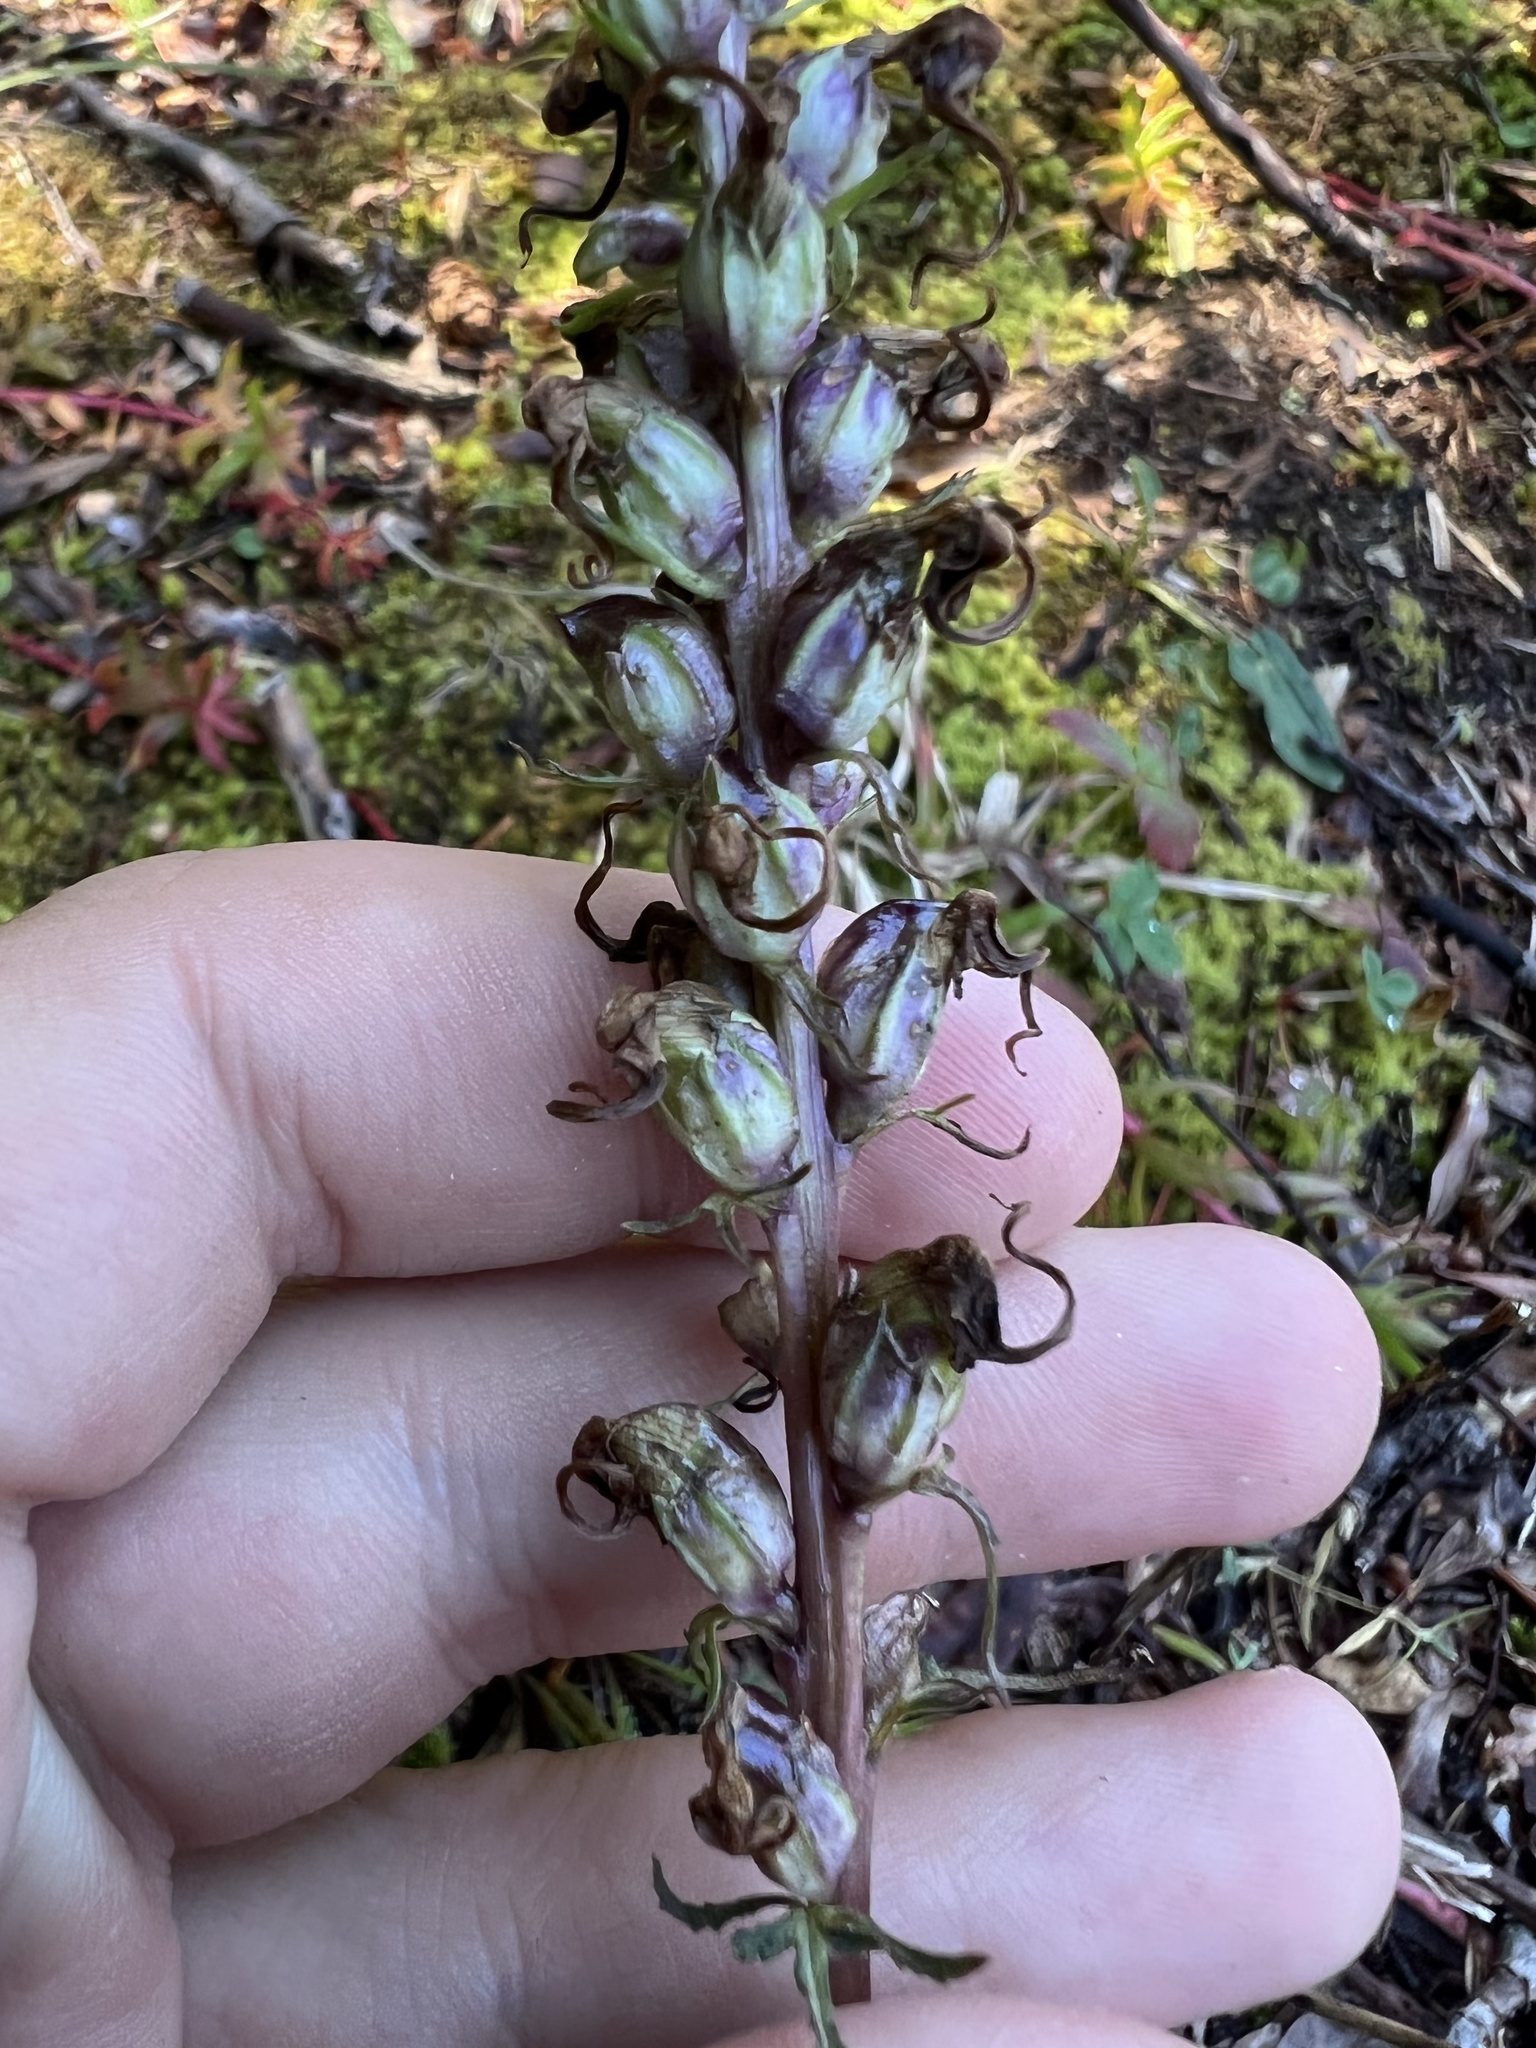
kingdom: Plantae
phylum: Tracheophyta
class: Magnoliopsida
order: Lamiales
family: Orobanchaceae
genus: Pedicularis
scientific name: Pedicularis groenlandica
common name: Elephant's-head
